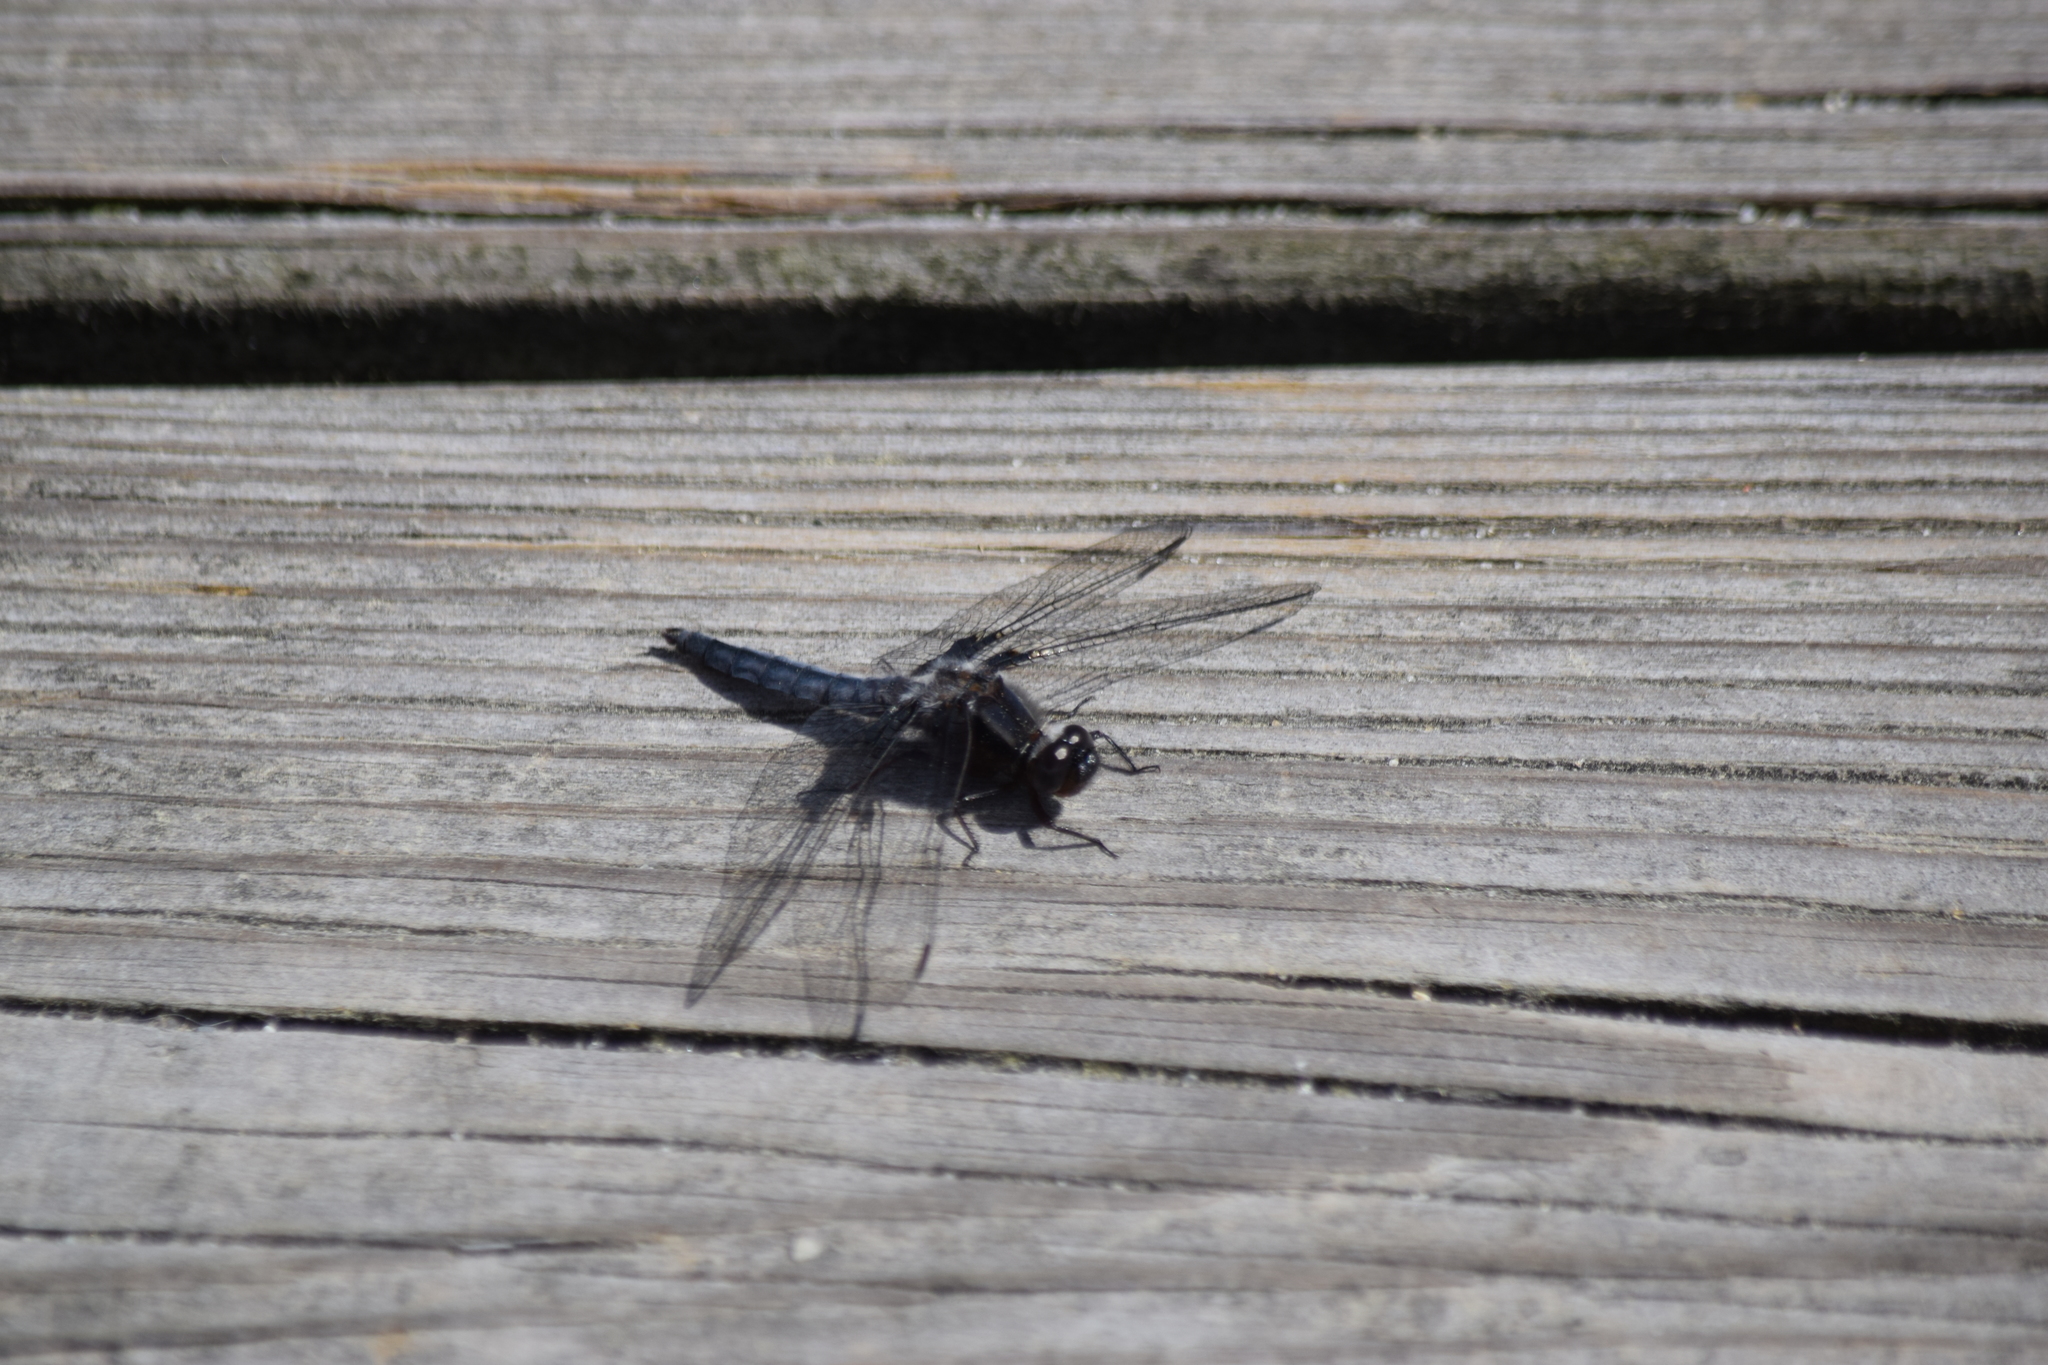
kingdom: Animalia
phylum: Arthropoda
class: Insecta
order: Odonata
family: Libellulidae
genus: Ladona
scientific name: Ladona deplanata
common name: Blue corporal
